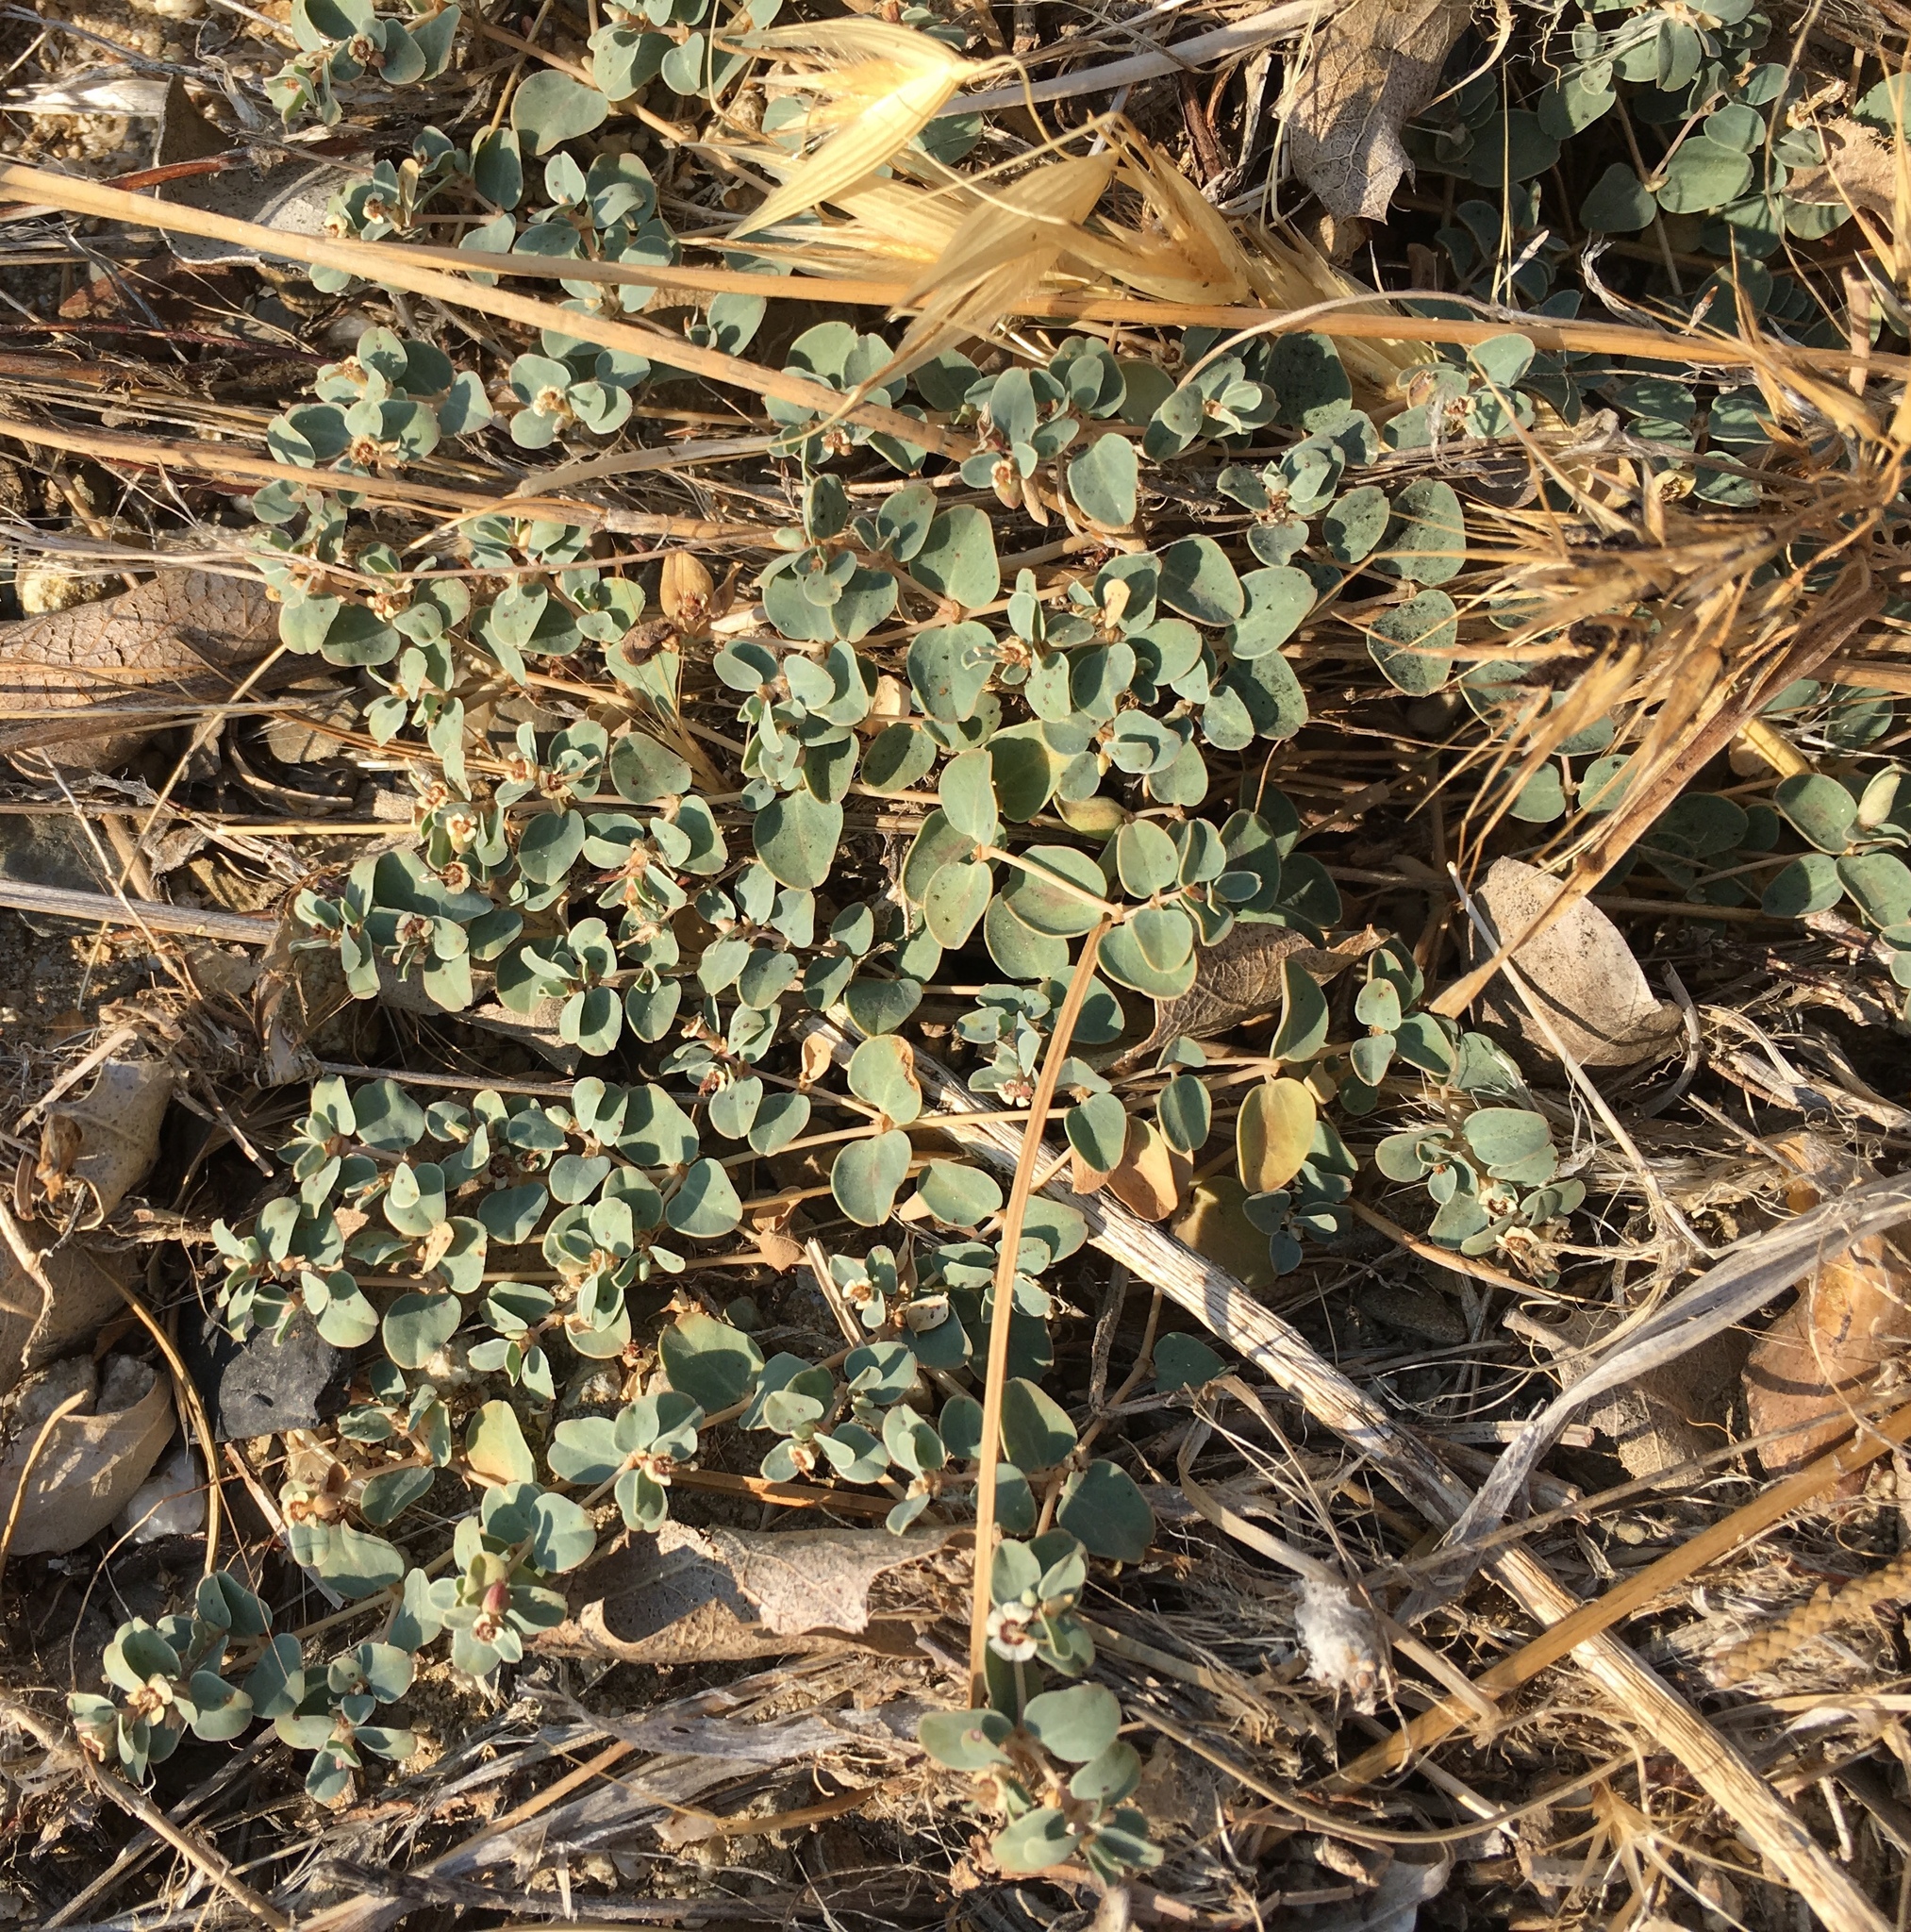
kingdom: Plantae
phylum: Tracheophyta
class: Magnoliopsida
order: Malpighiales
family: Euphorbiaceae
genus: Euphorbia
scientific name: Euphorbia albomarginata
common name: Whitemargin sandmat
